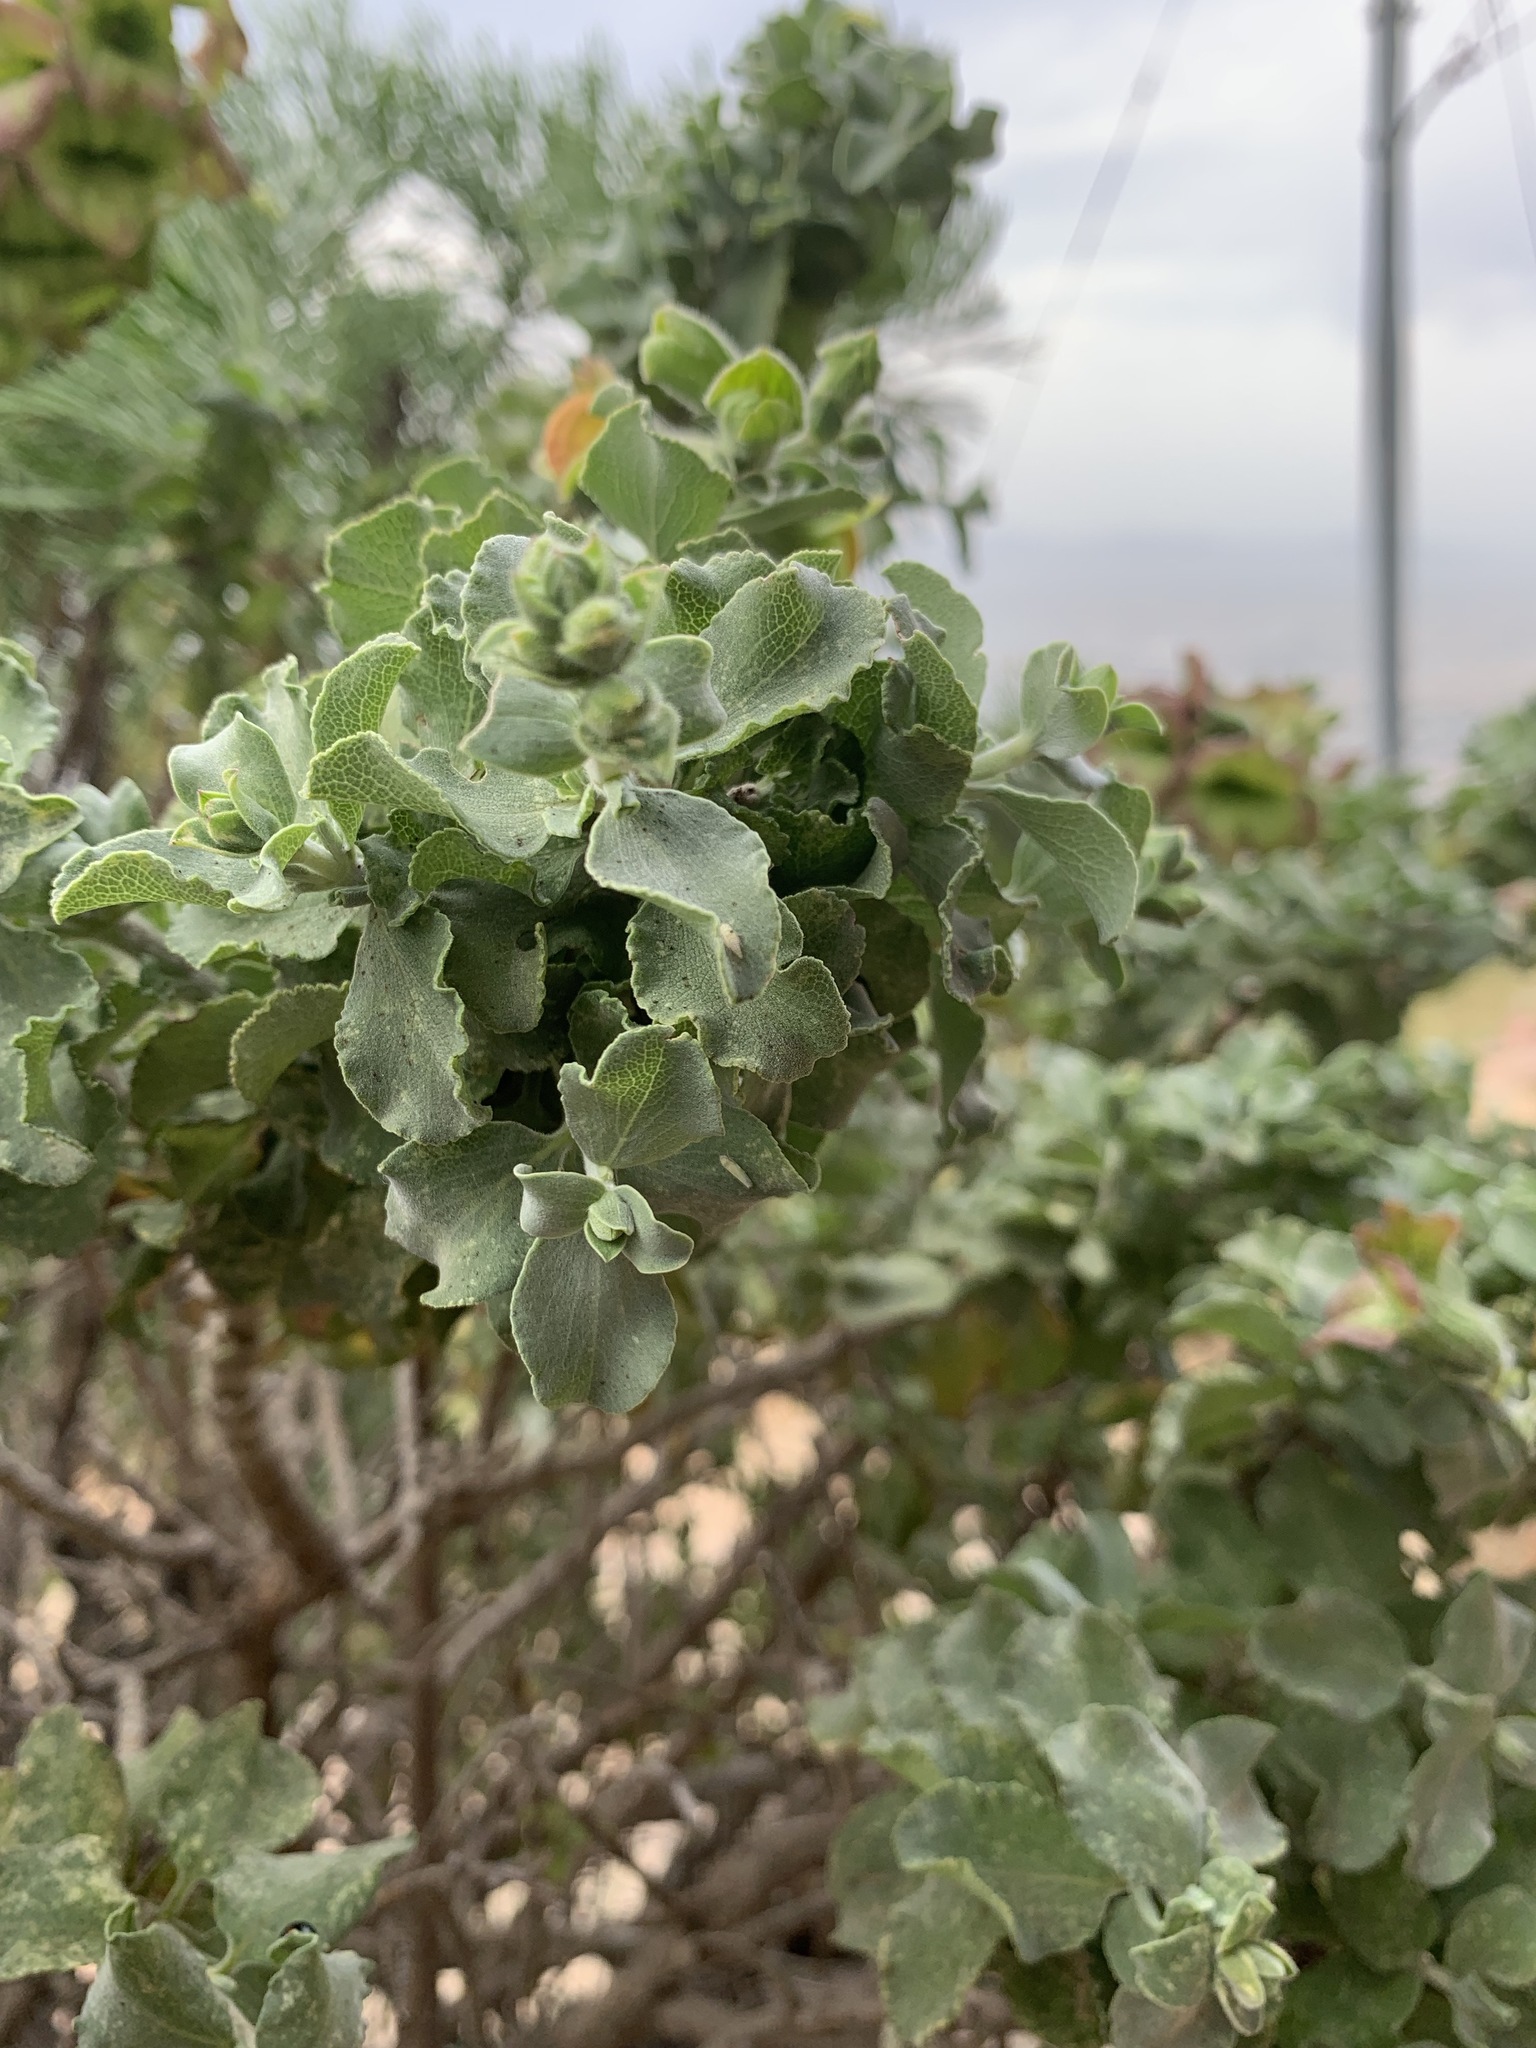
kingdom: Plantae
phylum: Tracheophyta
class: Magnoliopsida
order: Lamiales
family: Lamiaceae
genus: Salvia
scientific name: Salvia aurea
